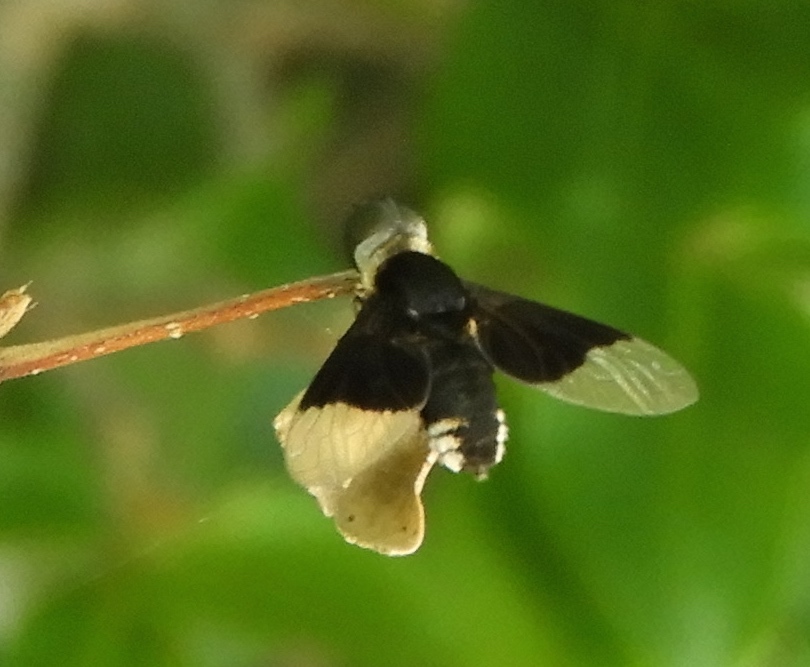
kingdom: Animalia
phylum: Arthropoda
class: Insecta
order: Diptera
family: Bombyliidae
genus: Ins
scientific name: Ins celeris
